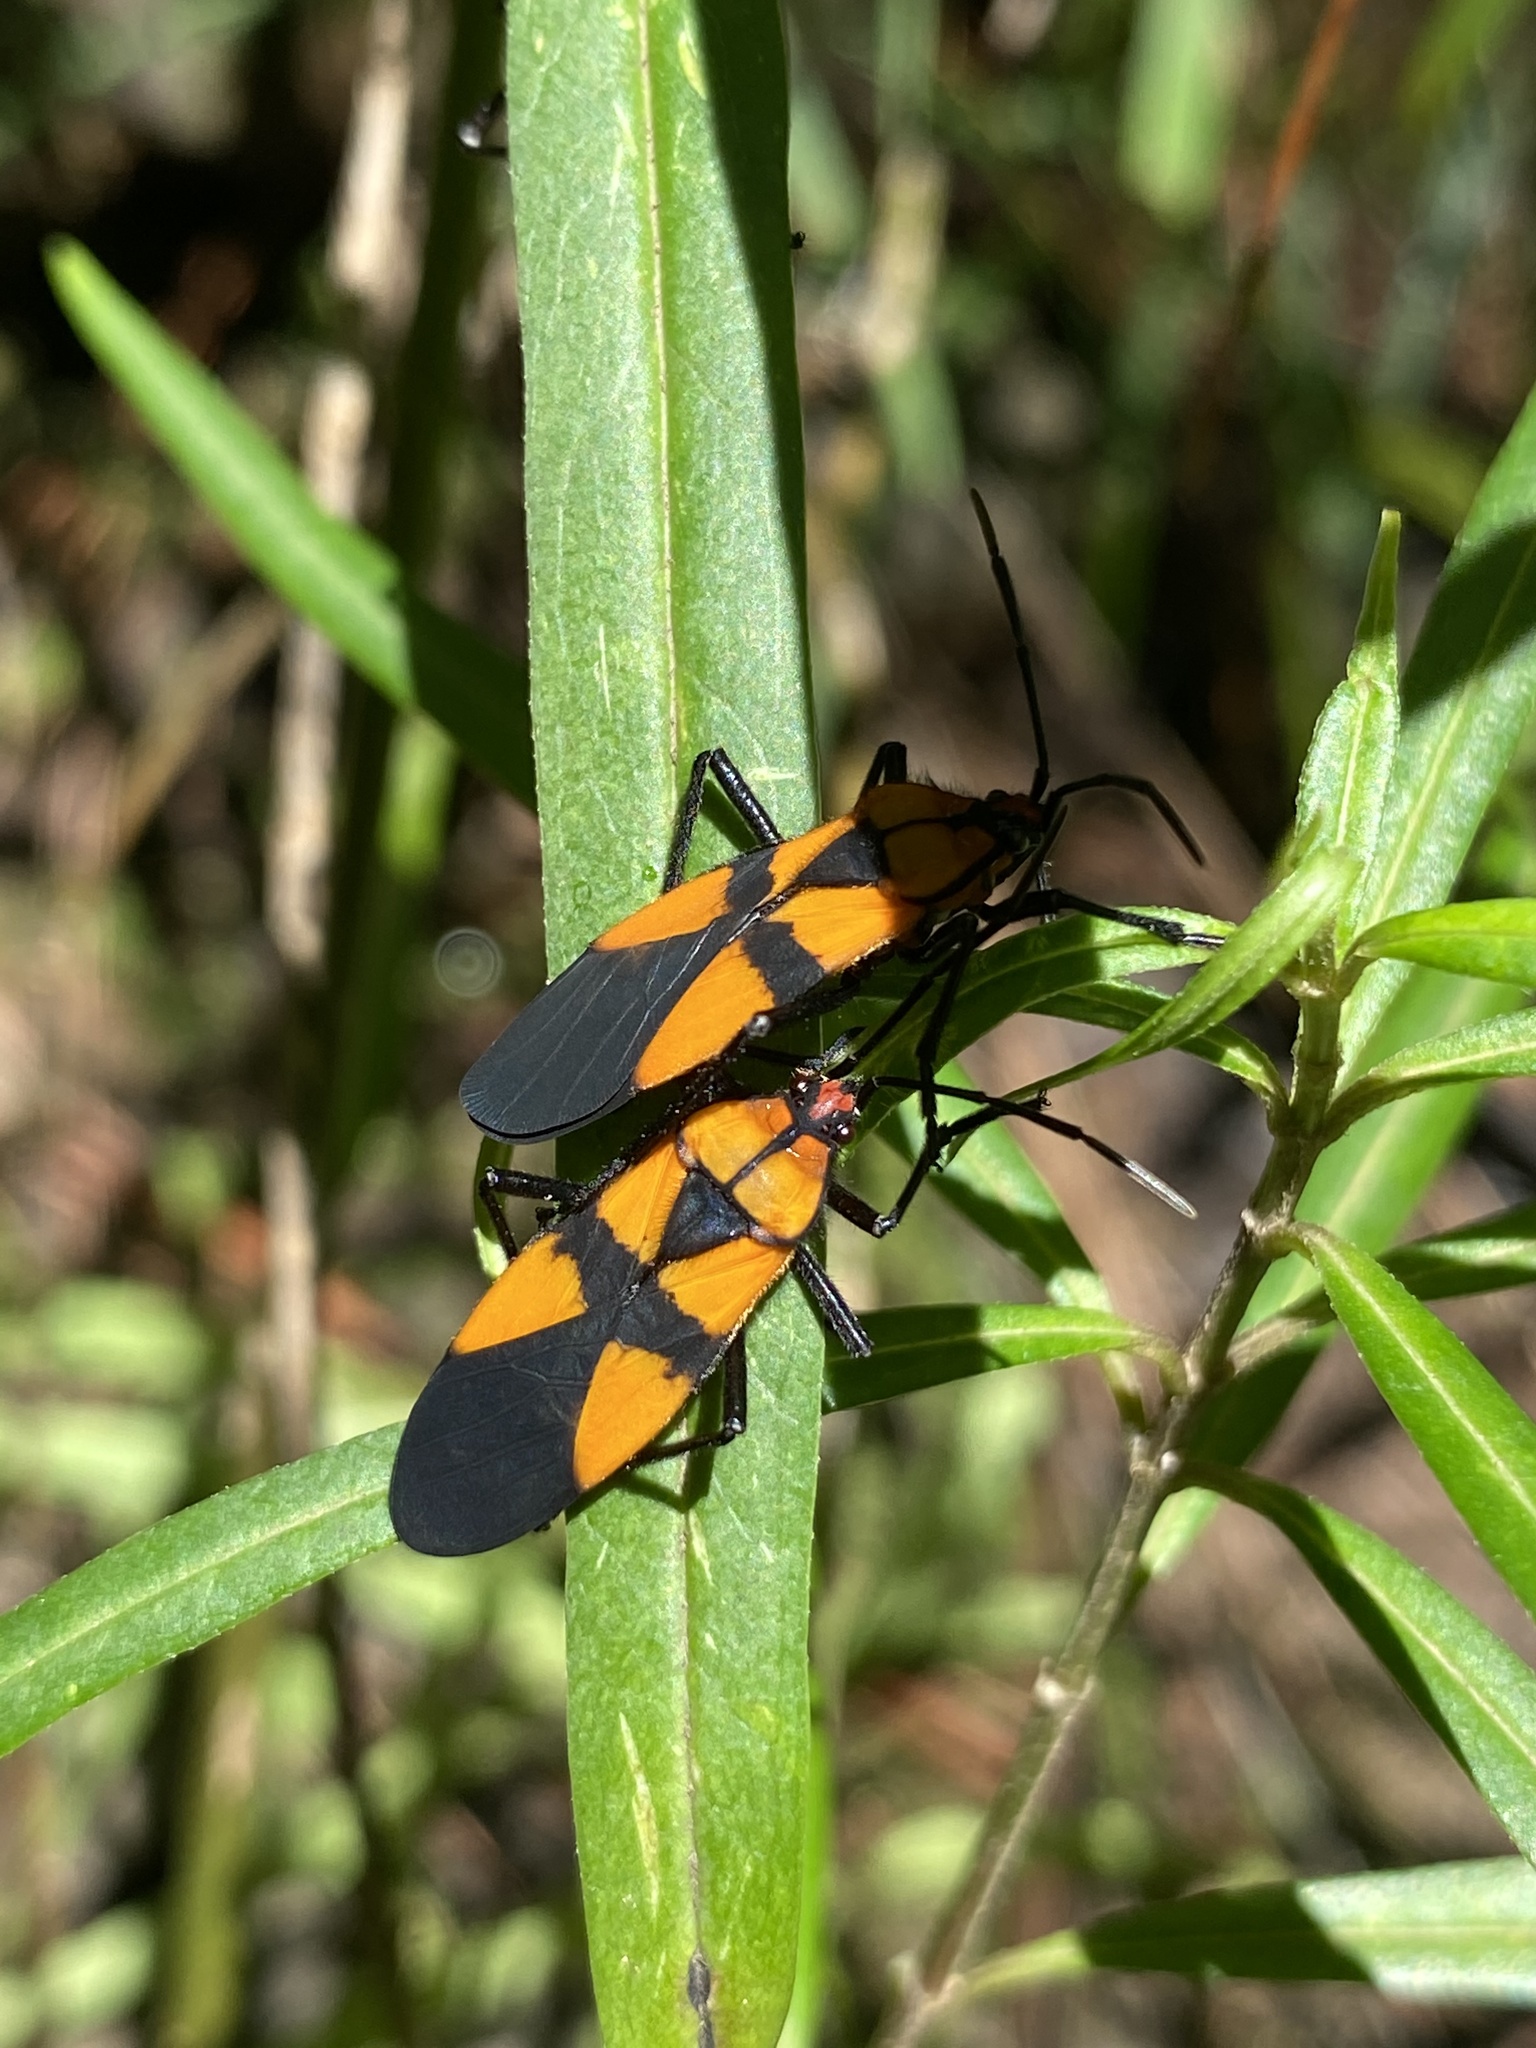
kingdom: Animalia
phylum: Arthropoda
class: Insecta
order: Hemiptera
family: Lygaeidae
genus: Oncopeltus
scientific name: Oncopeltus spectabilis
